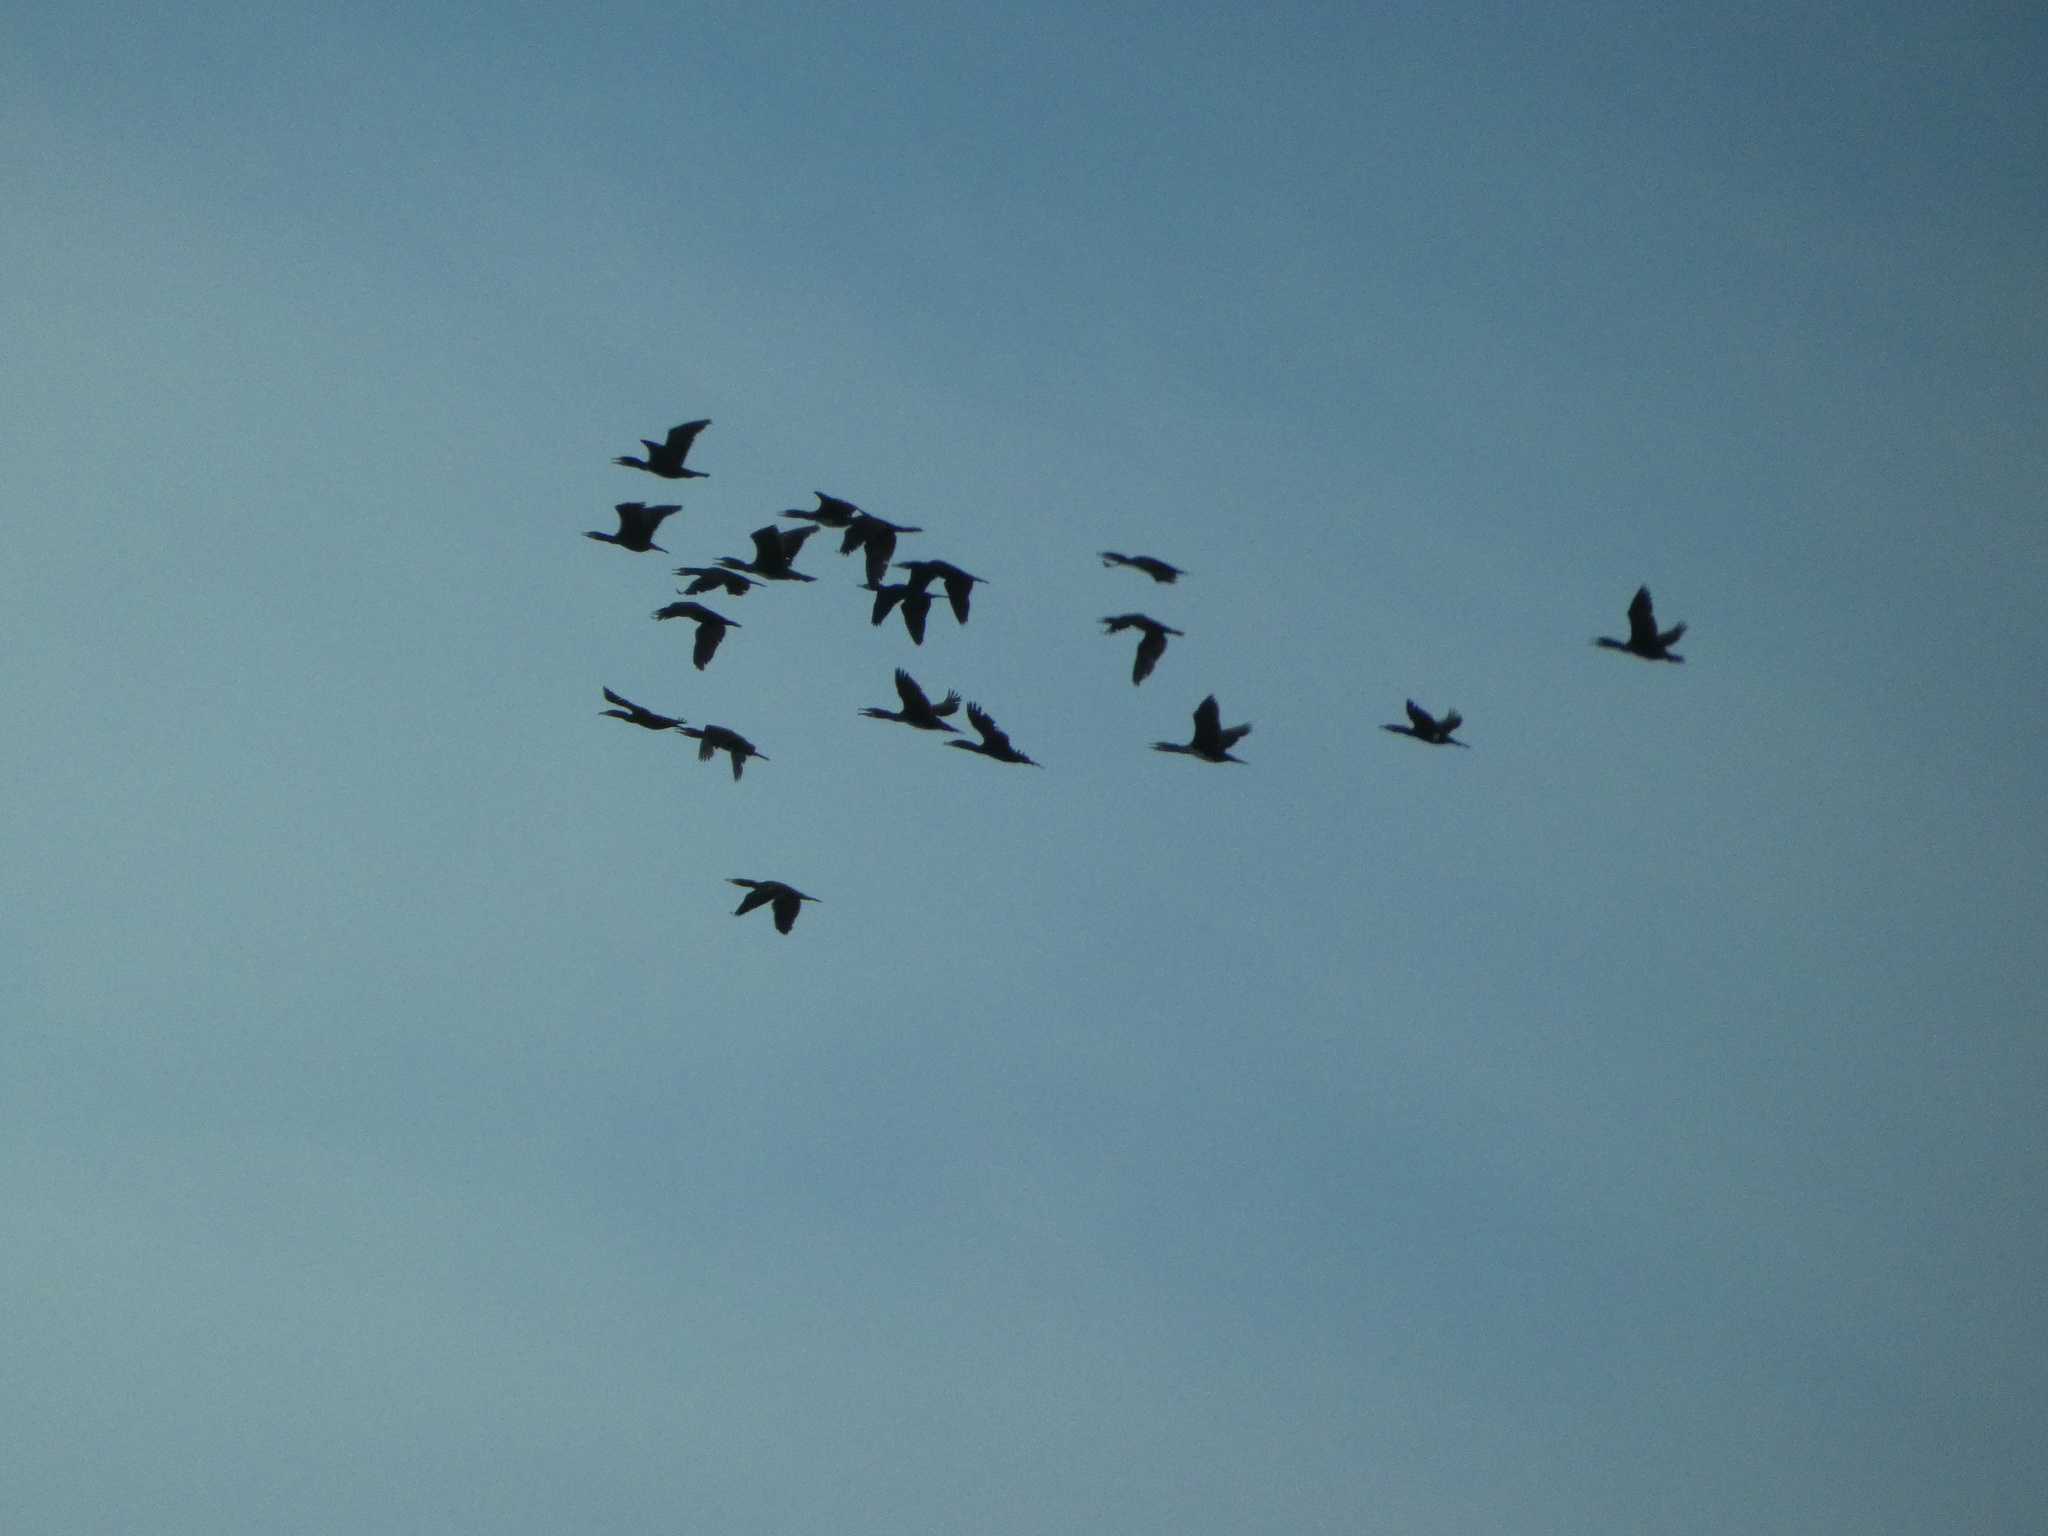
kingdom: Animalia
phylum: Chordata
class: Aves
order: Suliformes
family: Phalacrocoracidae
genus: Phalacrocorax
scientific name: Phalacrocorax carbo
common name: Great cormorant
